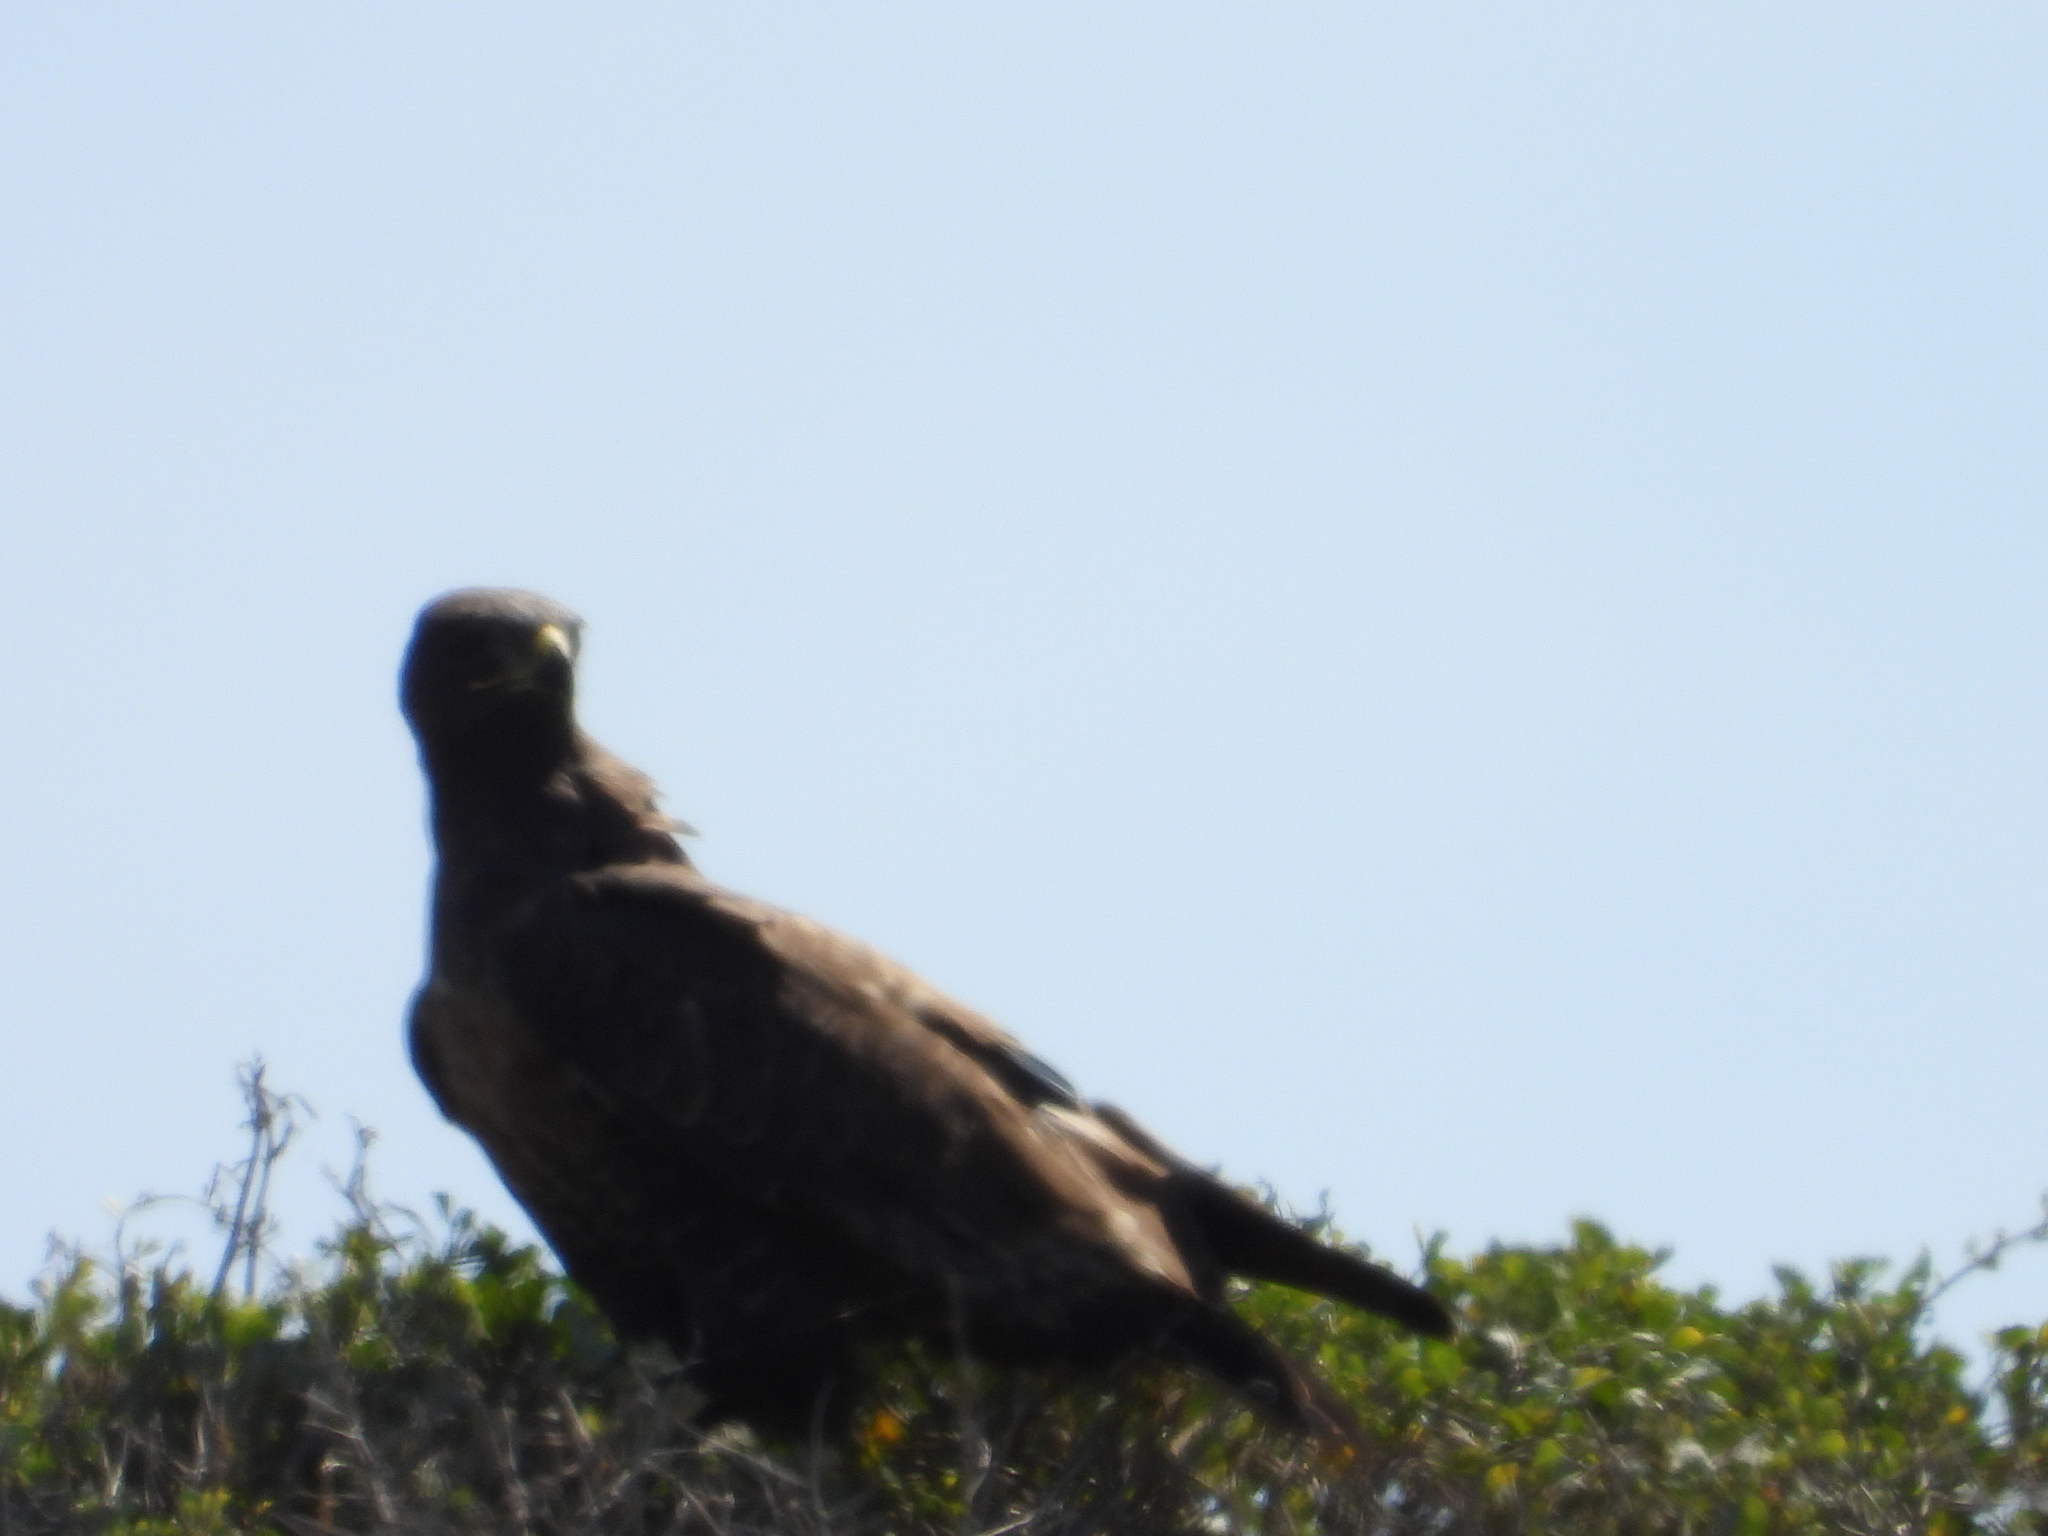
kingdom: Animalia
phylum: Chordata
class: Aves
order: Accipitriformes
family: Accipitridae
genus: Buteo
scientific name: Buteo rufofuscus
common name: Jackal buzzard
